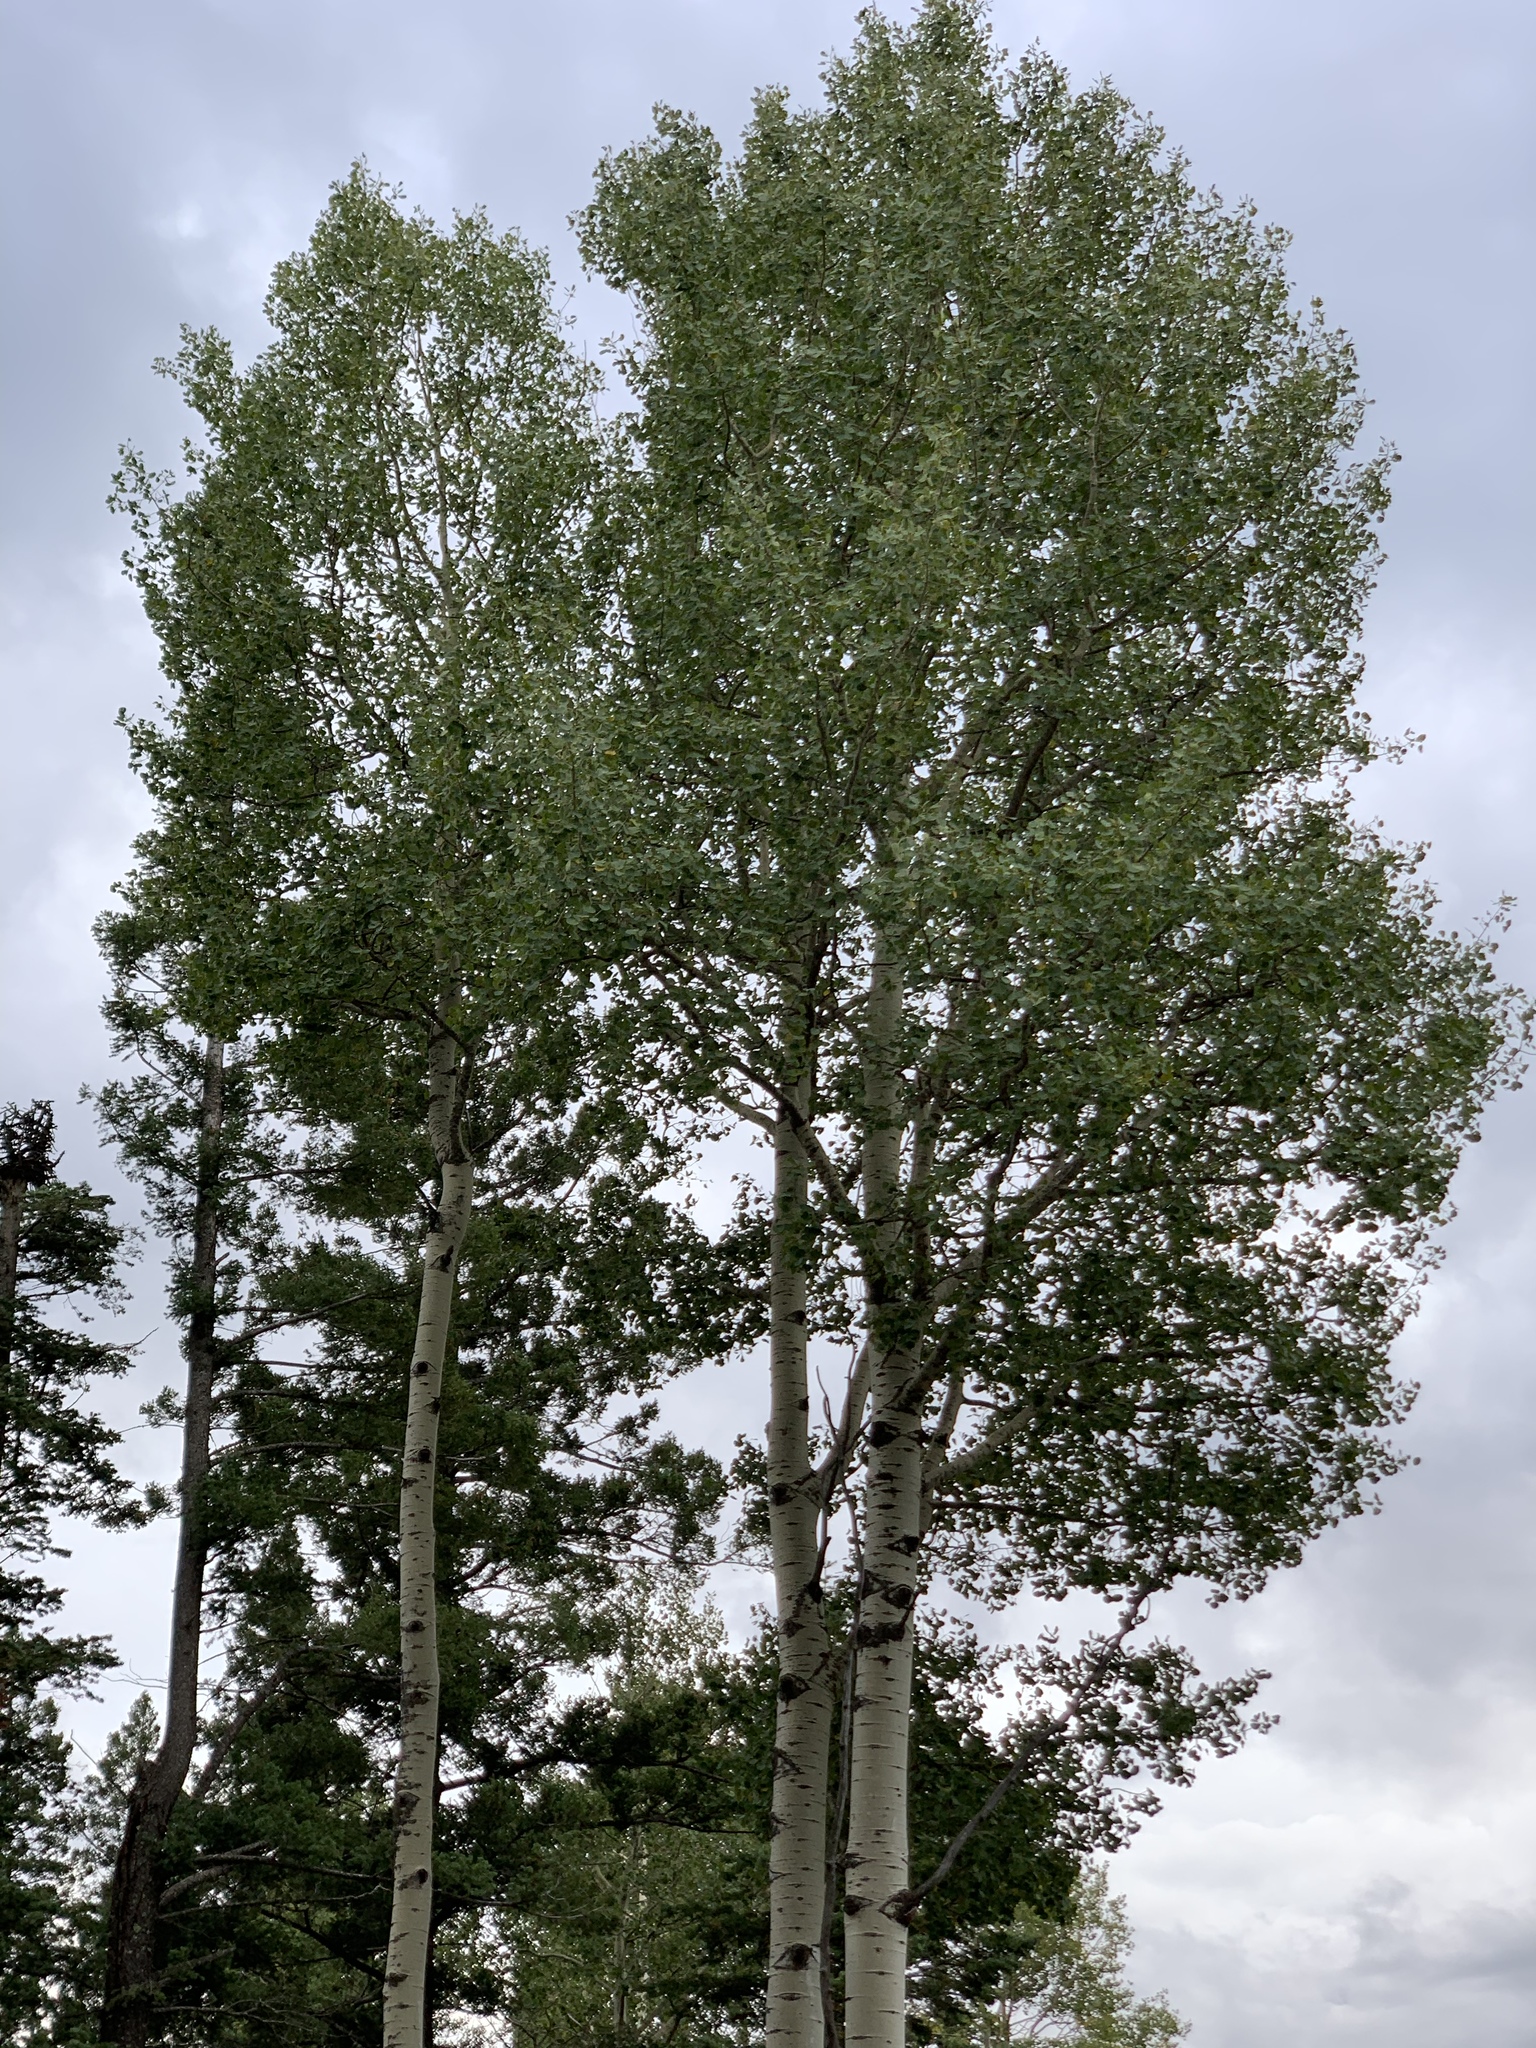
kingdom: Plantae
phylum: Tracheophyta
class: Magnoliopsida
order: Malpighiales
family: Salicaceae
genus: Populus
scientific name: Populus tremuloides
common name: Quaking aspen
